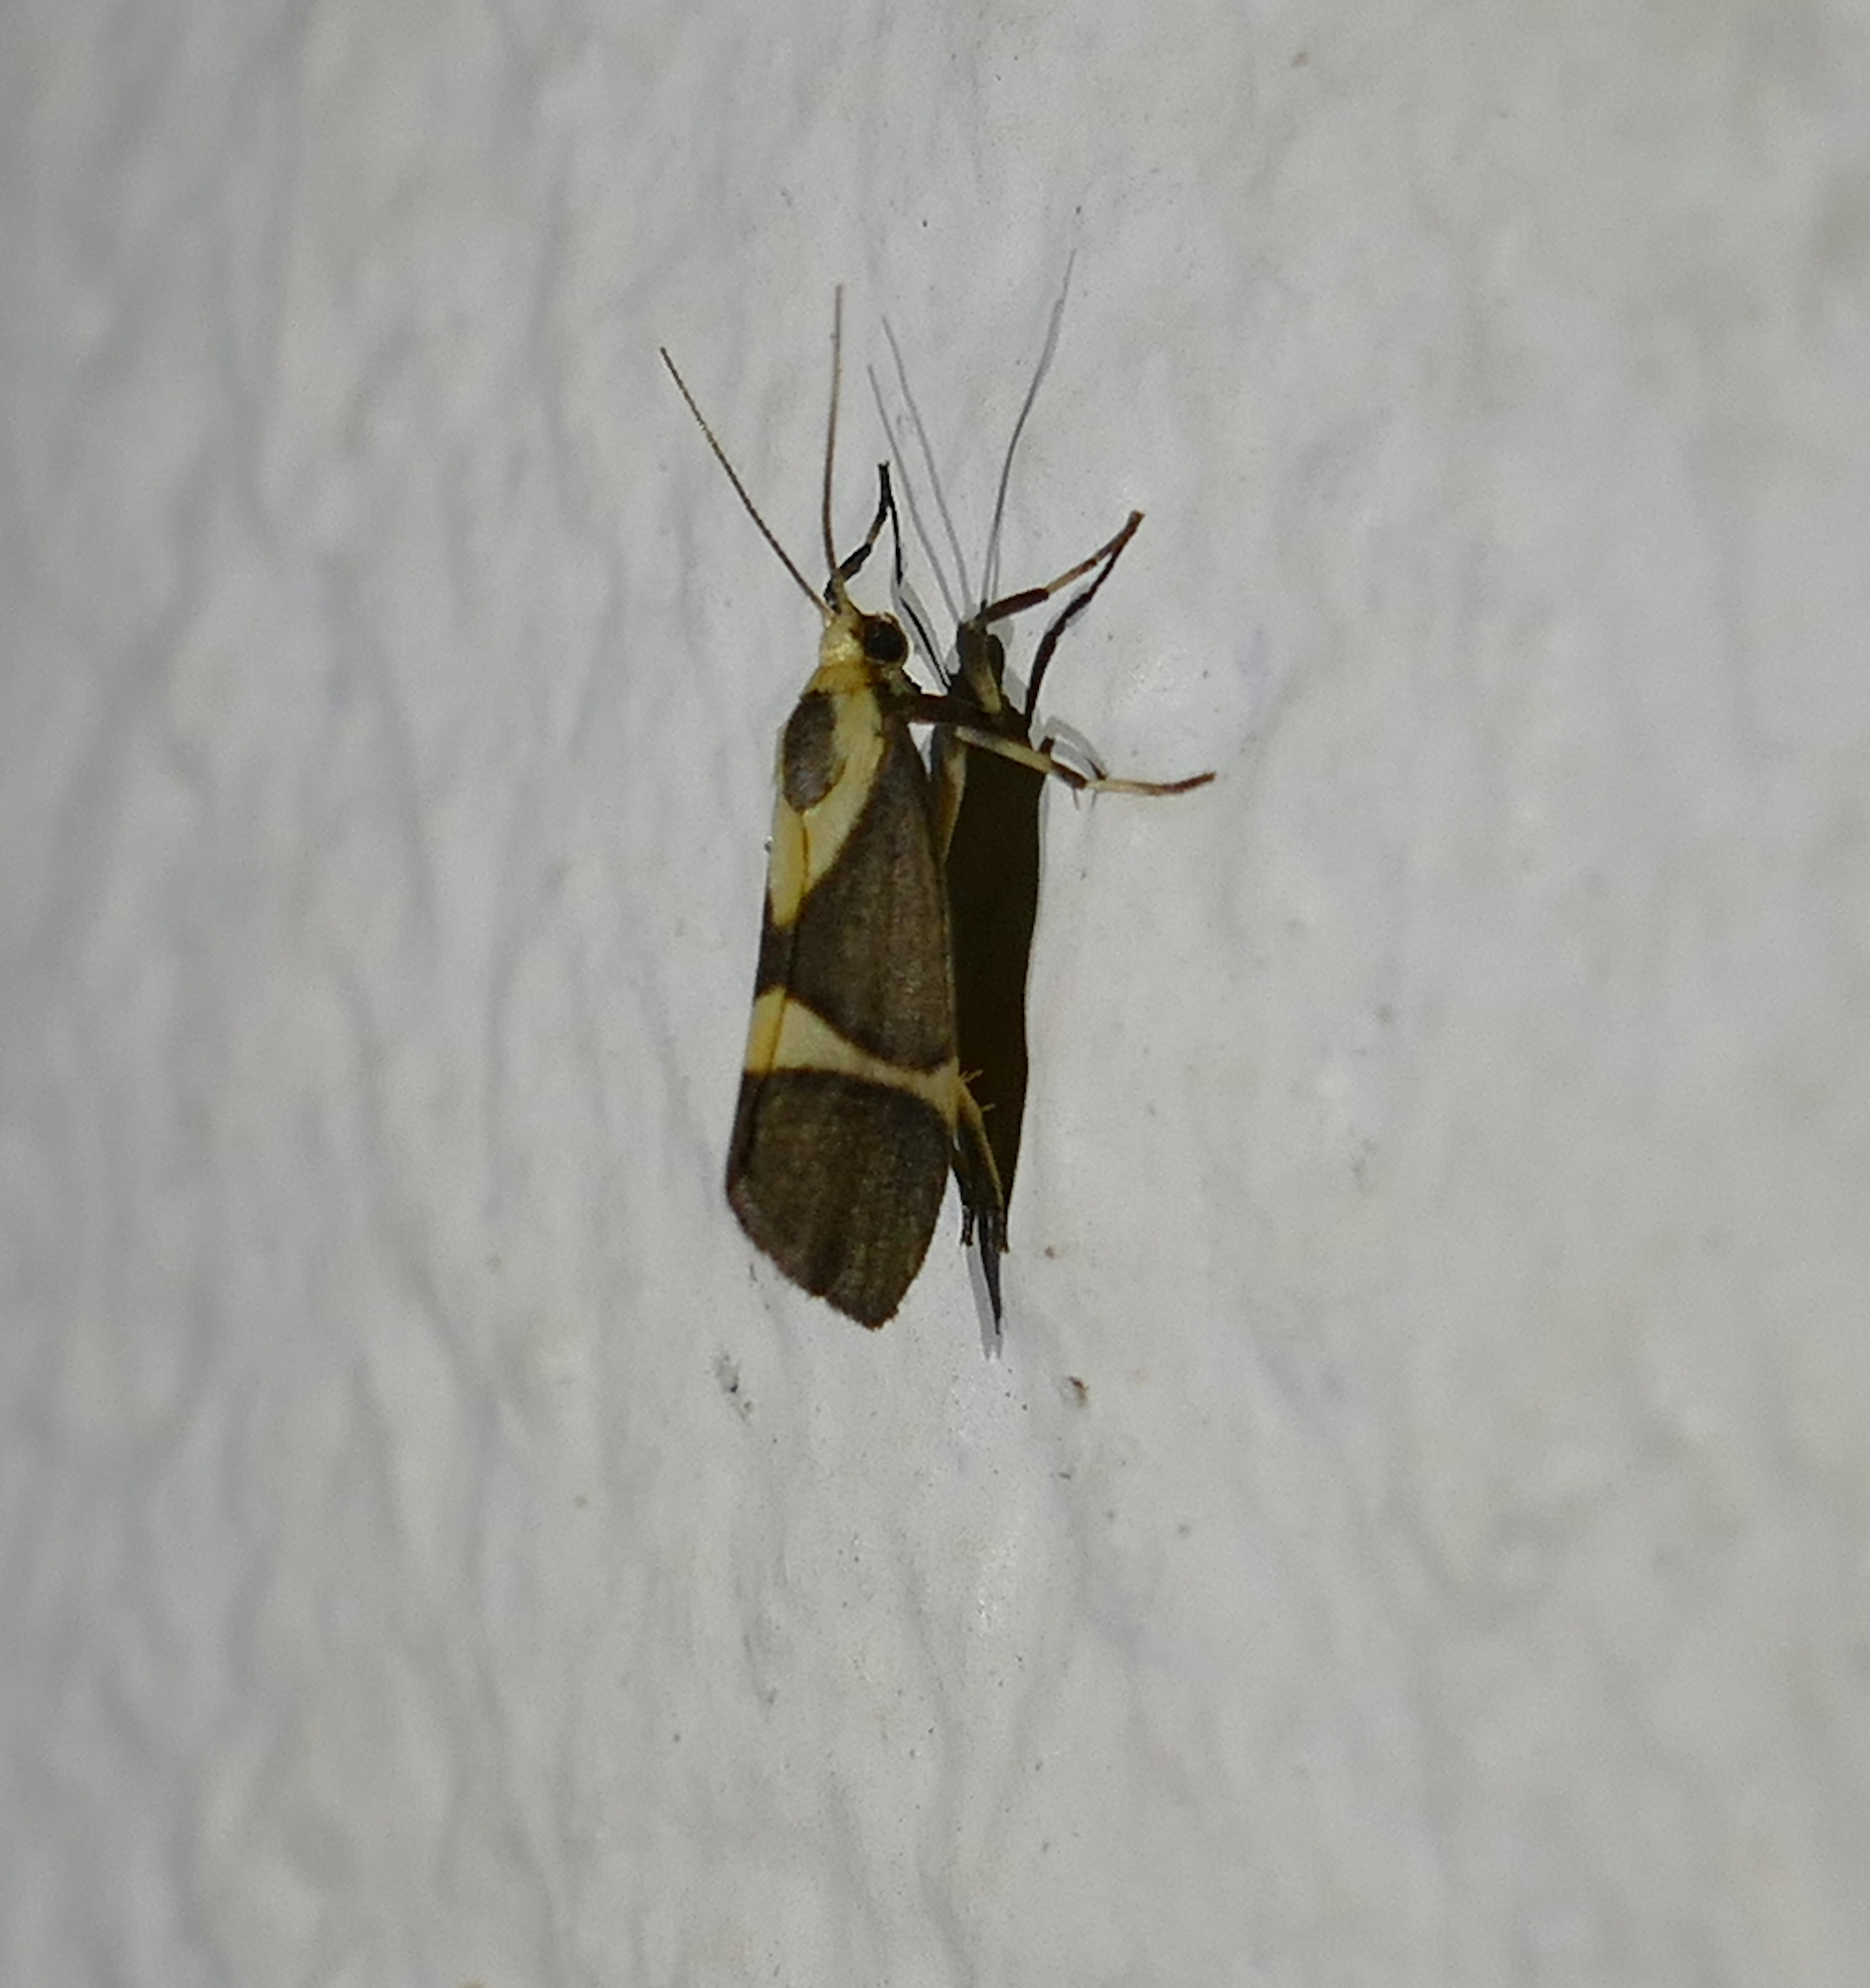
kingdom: Animalia
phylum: Arthropoda
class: Insecta
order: Lepidoptera
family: Erebidae
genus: Cisthene
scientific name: Cisthene subrufa
